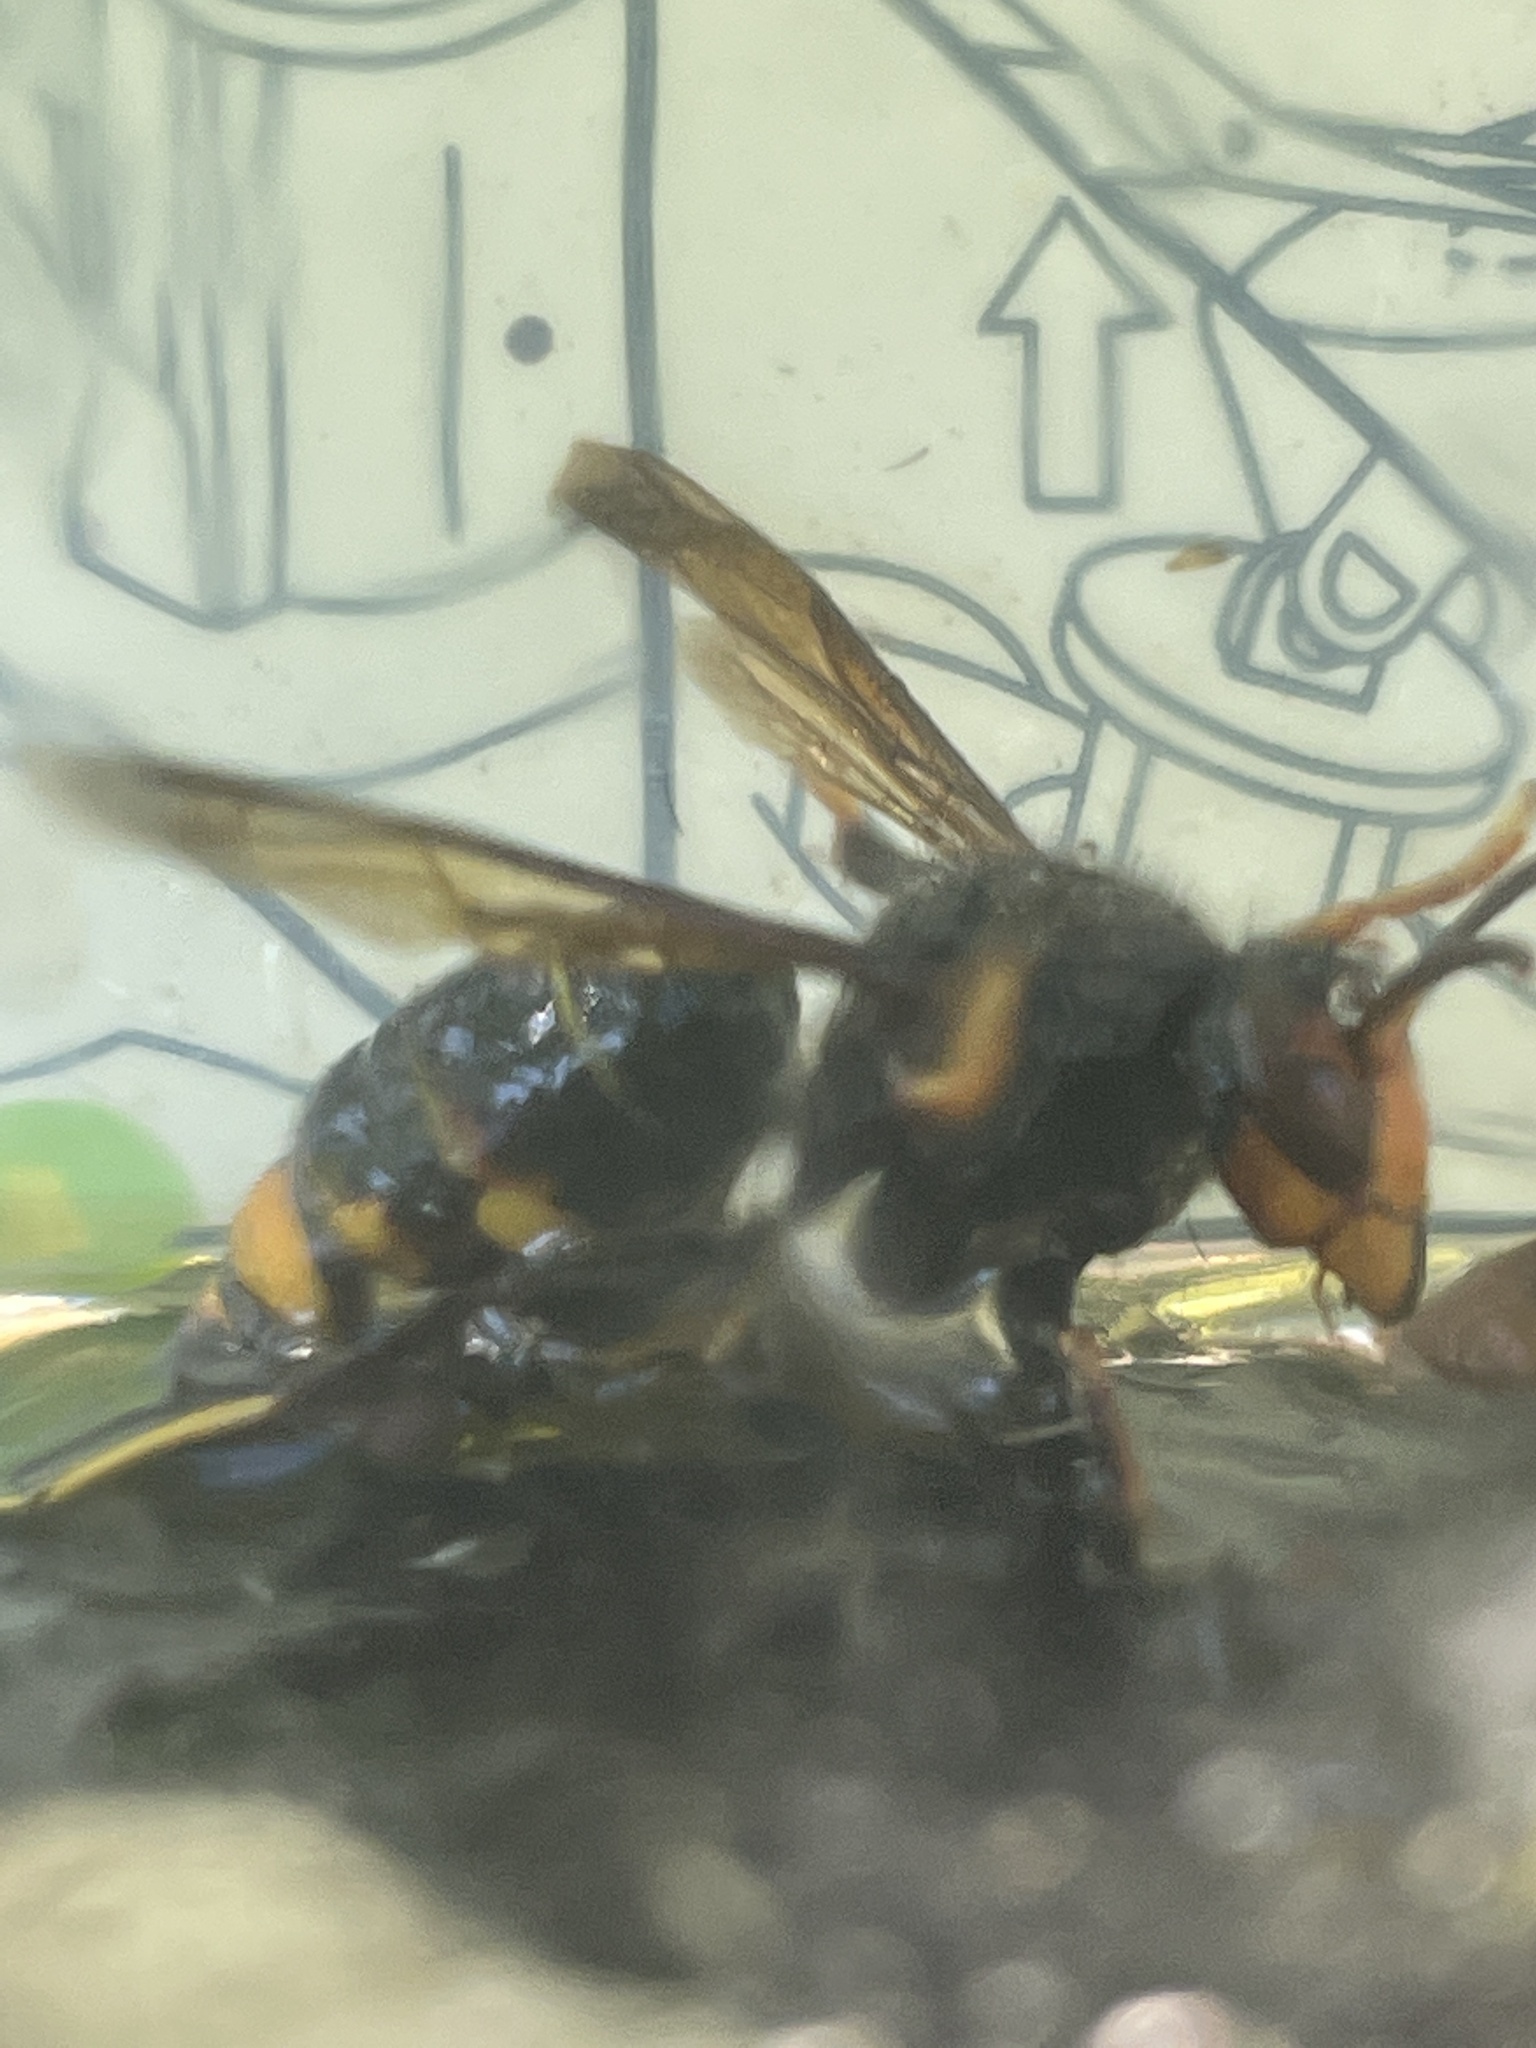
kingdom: Animalia
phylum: Arthropoda
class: Insecta
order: Hymenoptera
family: Vespidae
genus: Vespa
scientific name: Vespa velutina
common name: Asian hornet
